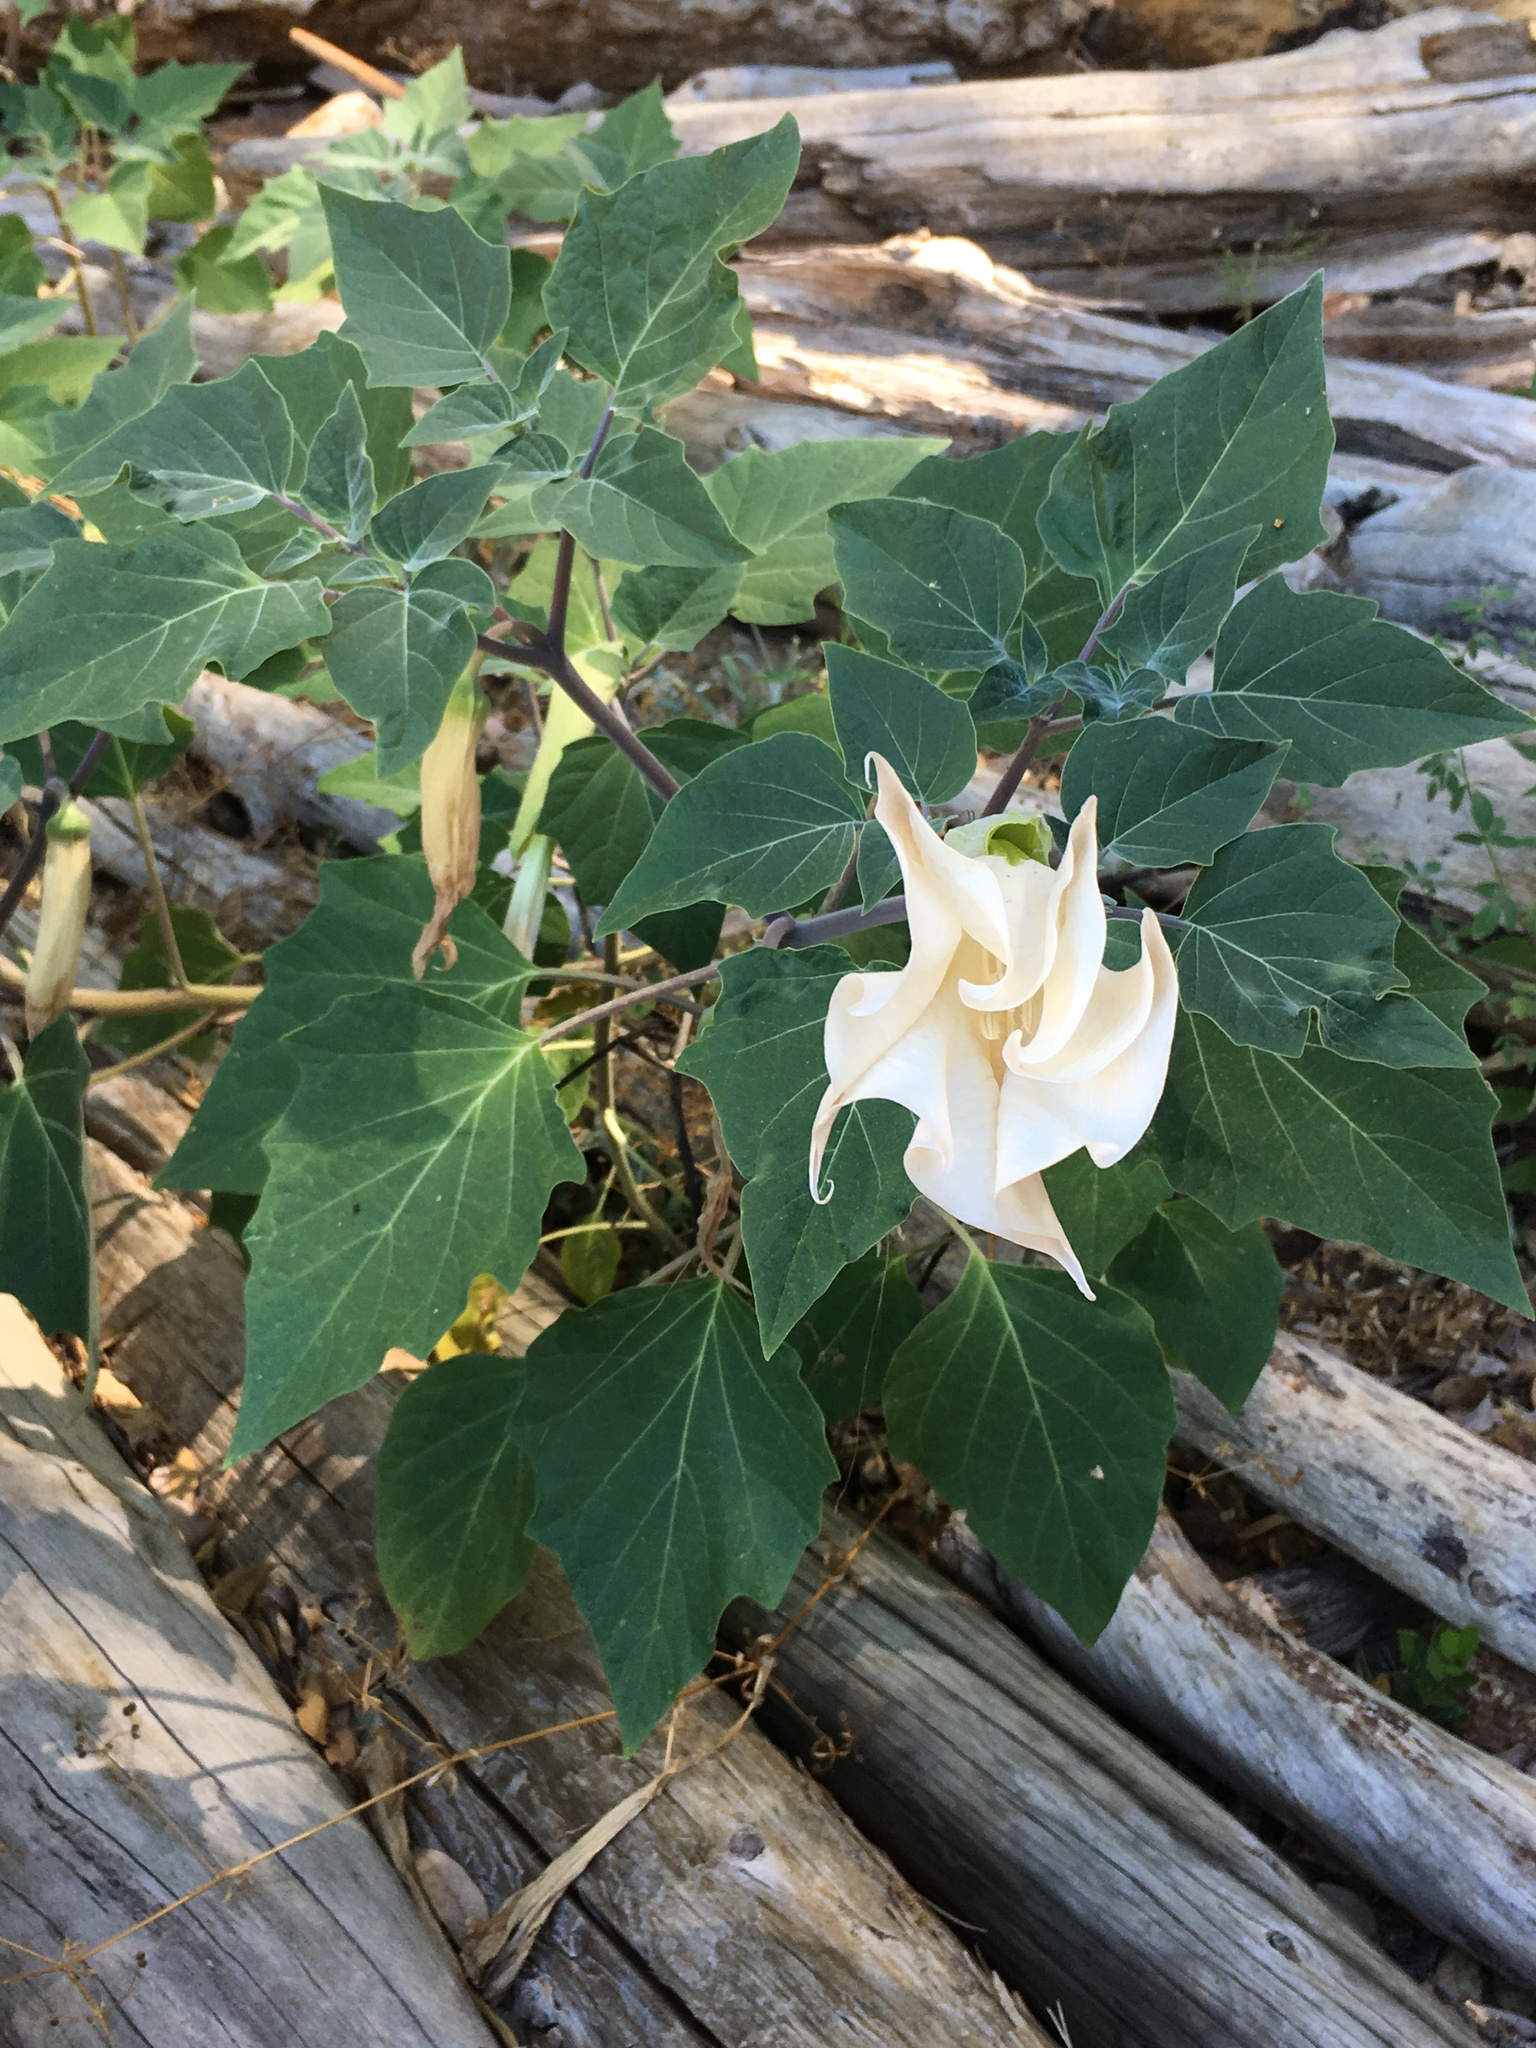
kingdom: Plantae
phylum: Tracheophyta
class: Magnoliopsida
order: Solanales
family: Solanaceae
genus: Datura
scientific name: Datura wrightii
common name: Sacred thorn-apple
